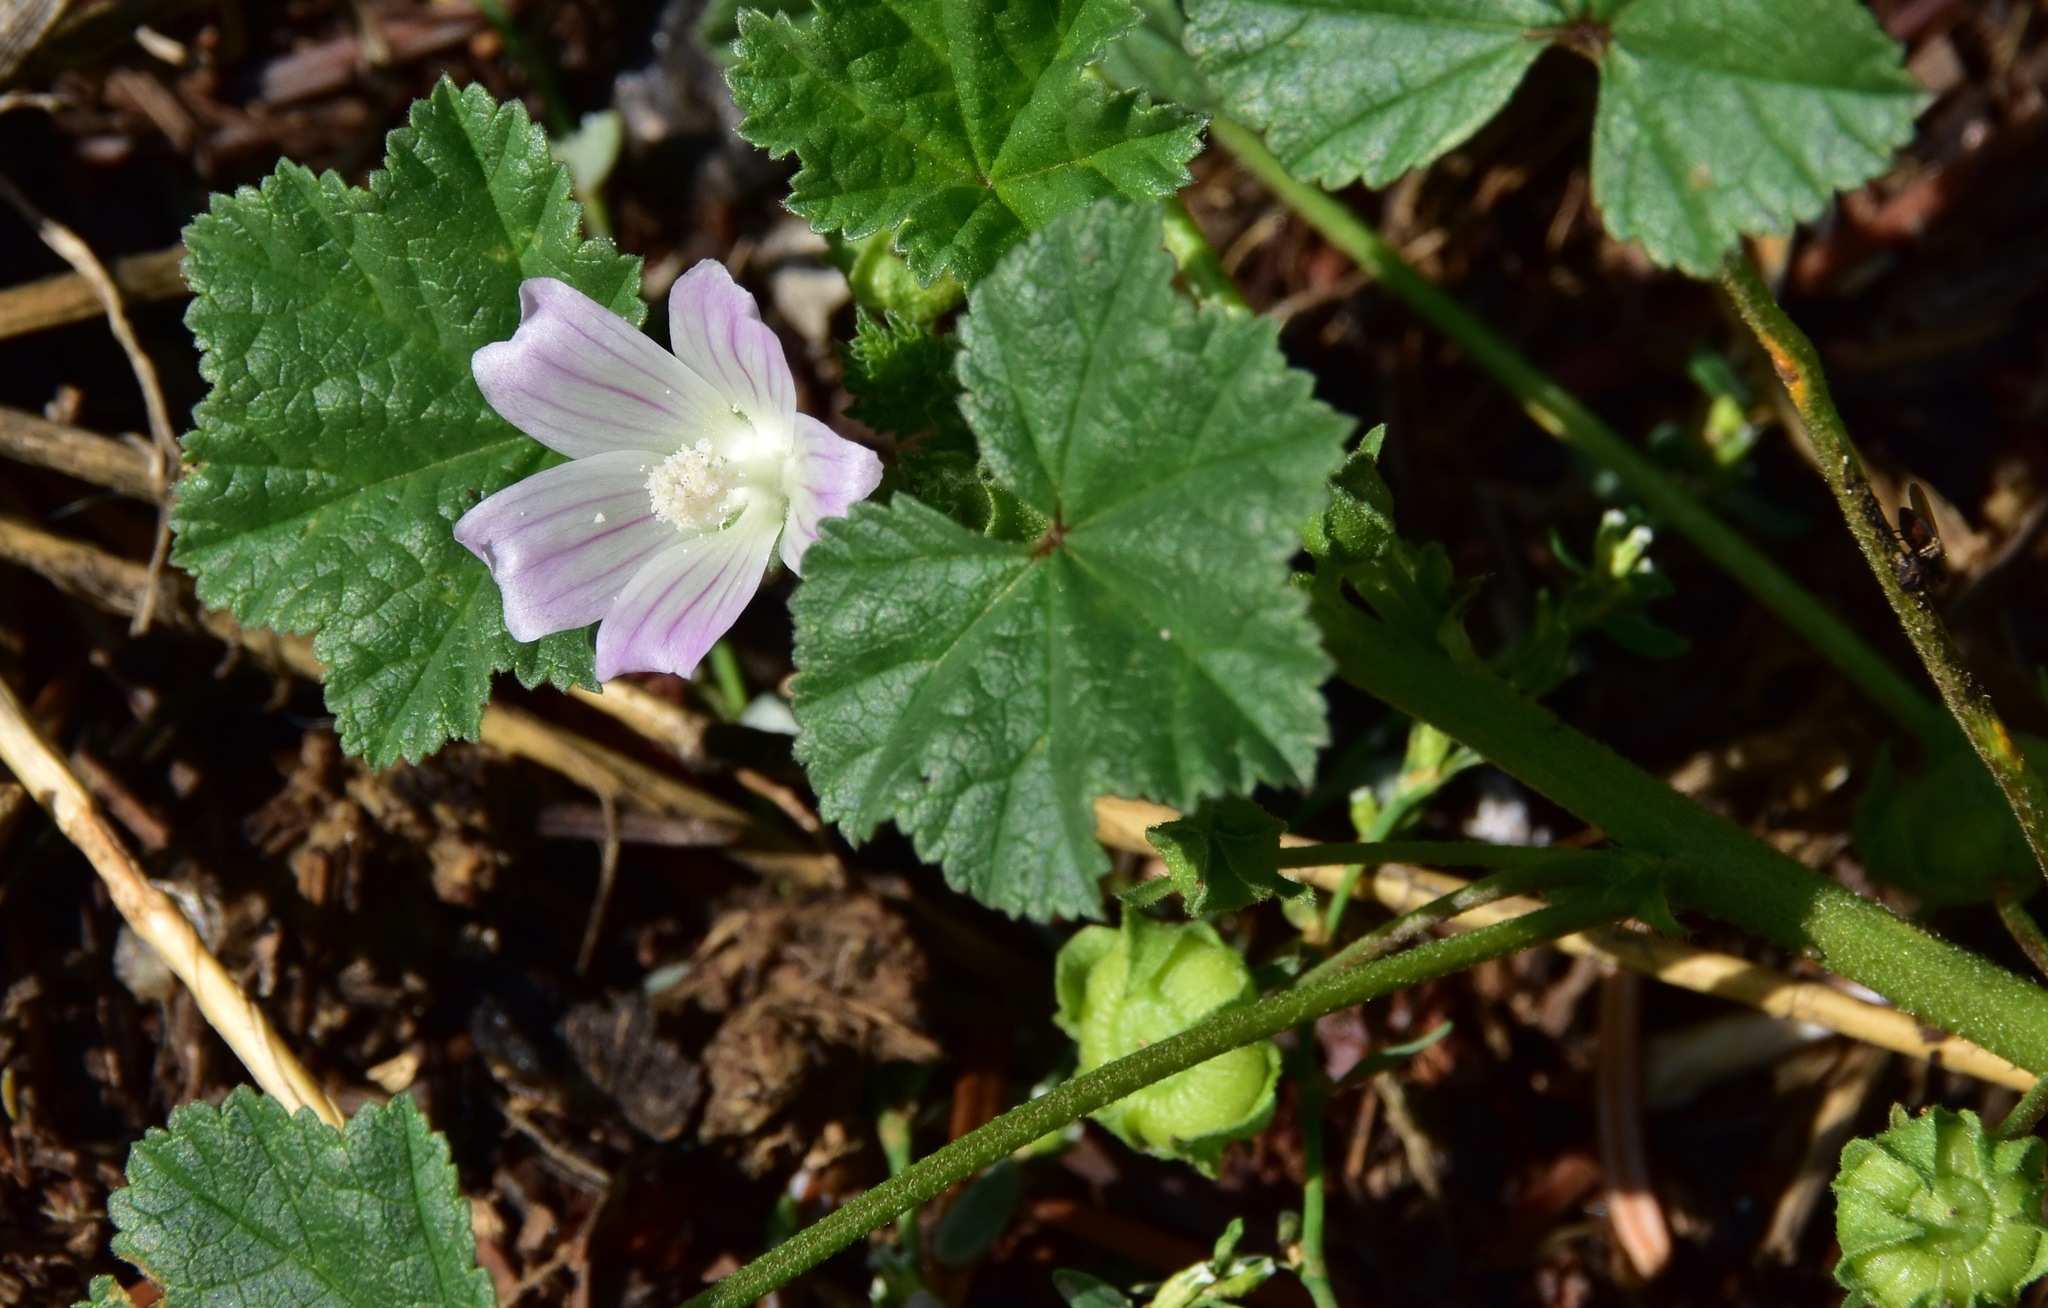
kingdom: Plantae
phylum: Tracheophyta
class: Magnoliopsida
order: Malvales
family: Malvaceae
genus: Malva
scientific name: Malva neglecta
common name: Common mallow
